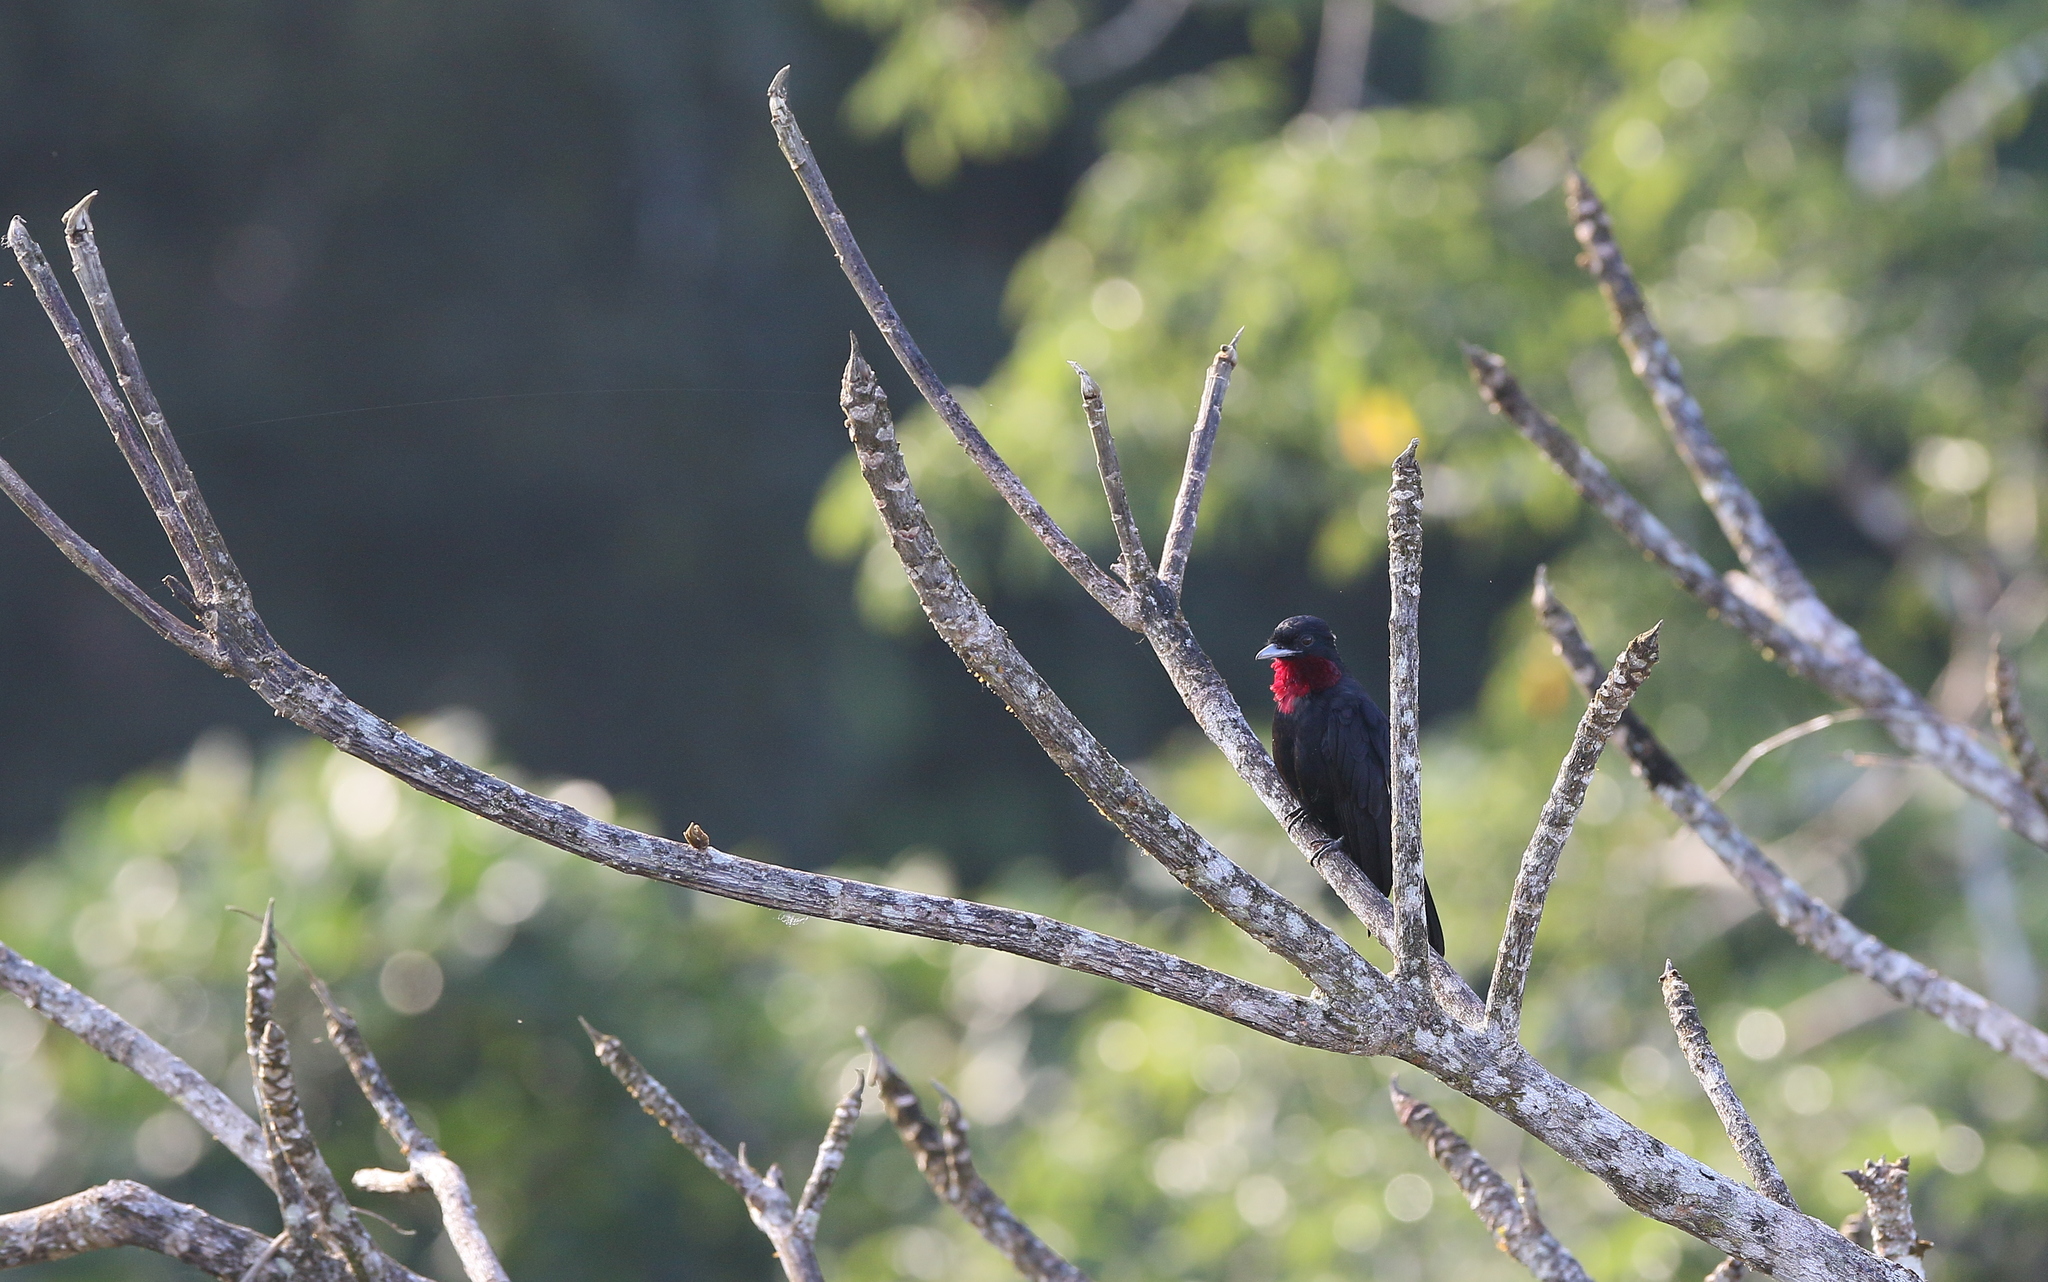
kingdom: Animalia
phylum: Chordata
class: Aves
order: Passeriformes
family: Cotingidae
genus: Querula
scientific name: Querula purpurata
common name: Purple-throated fruitcrow
